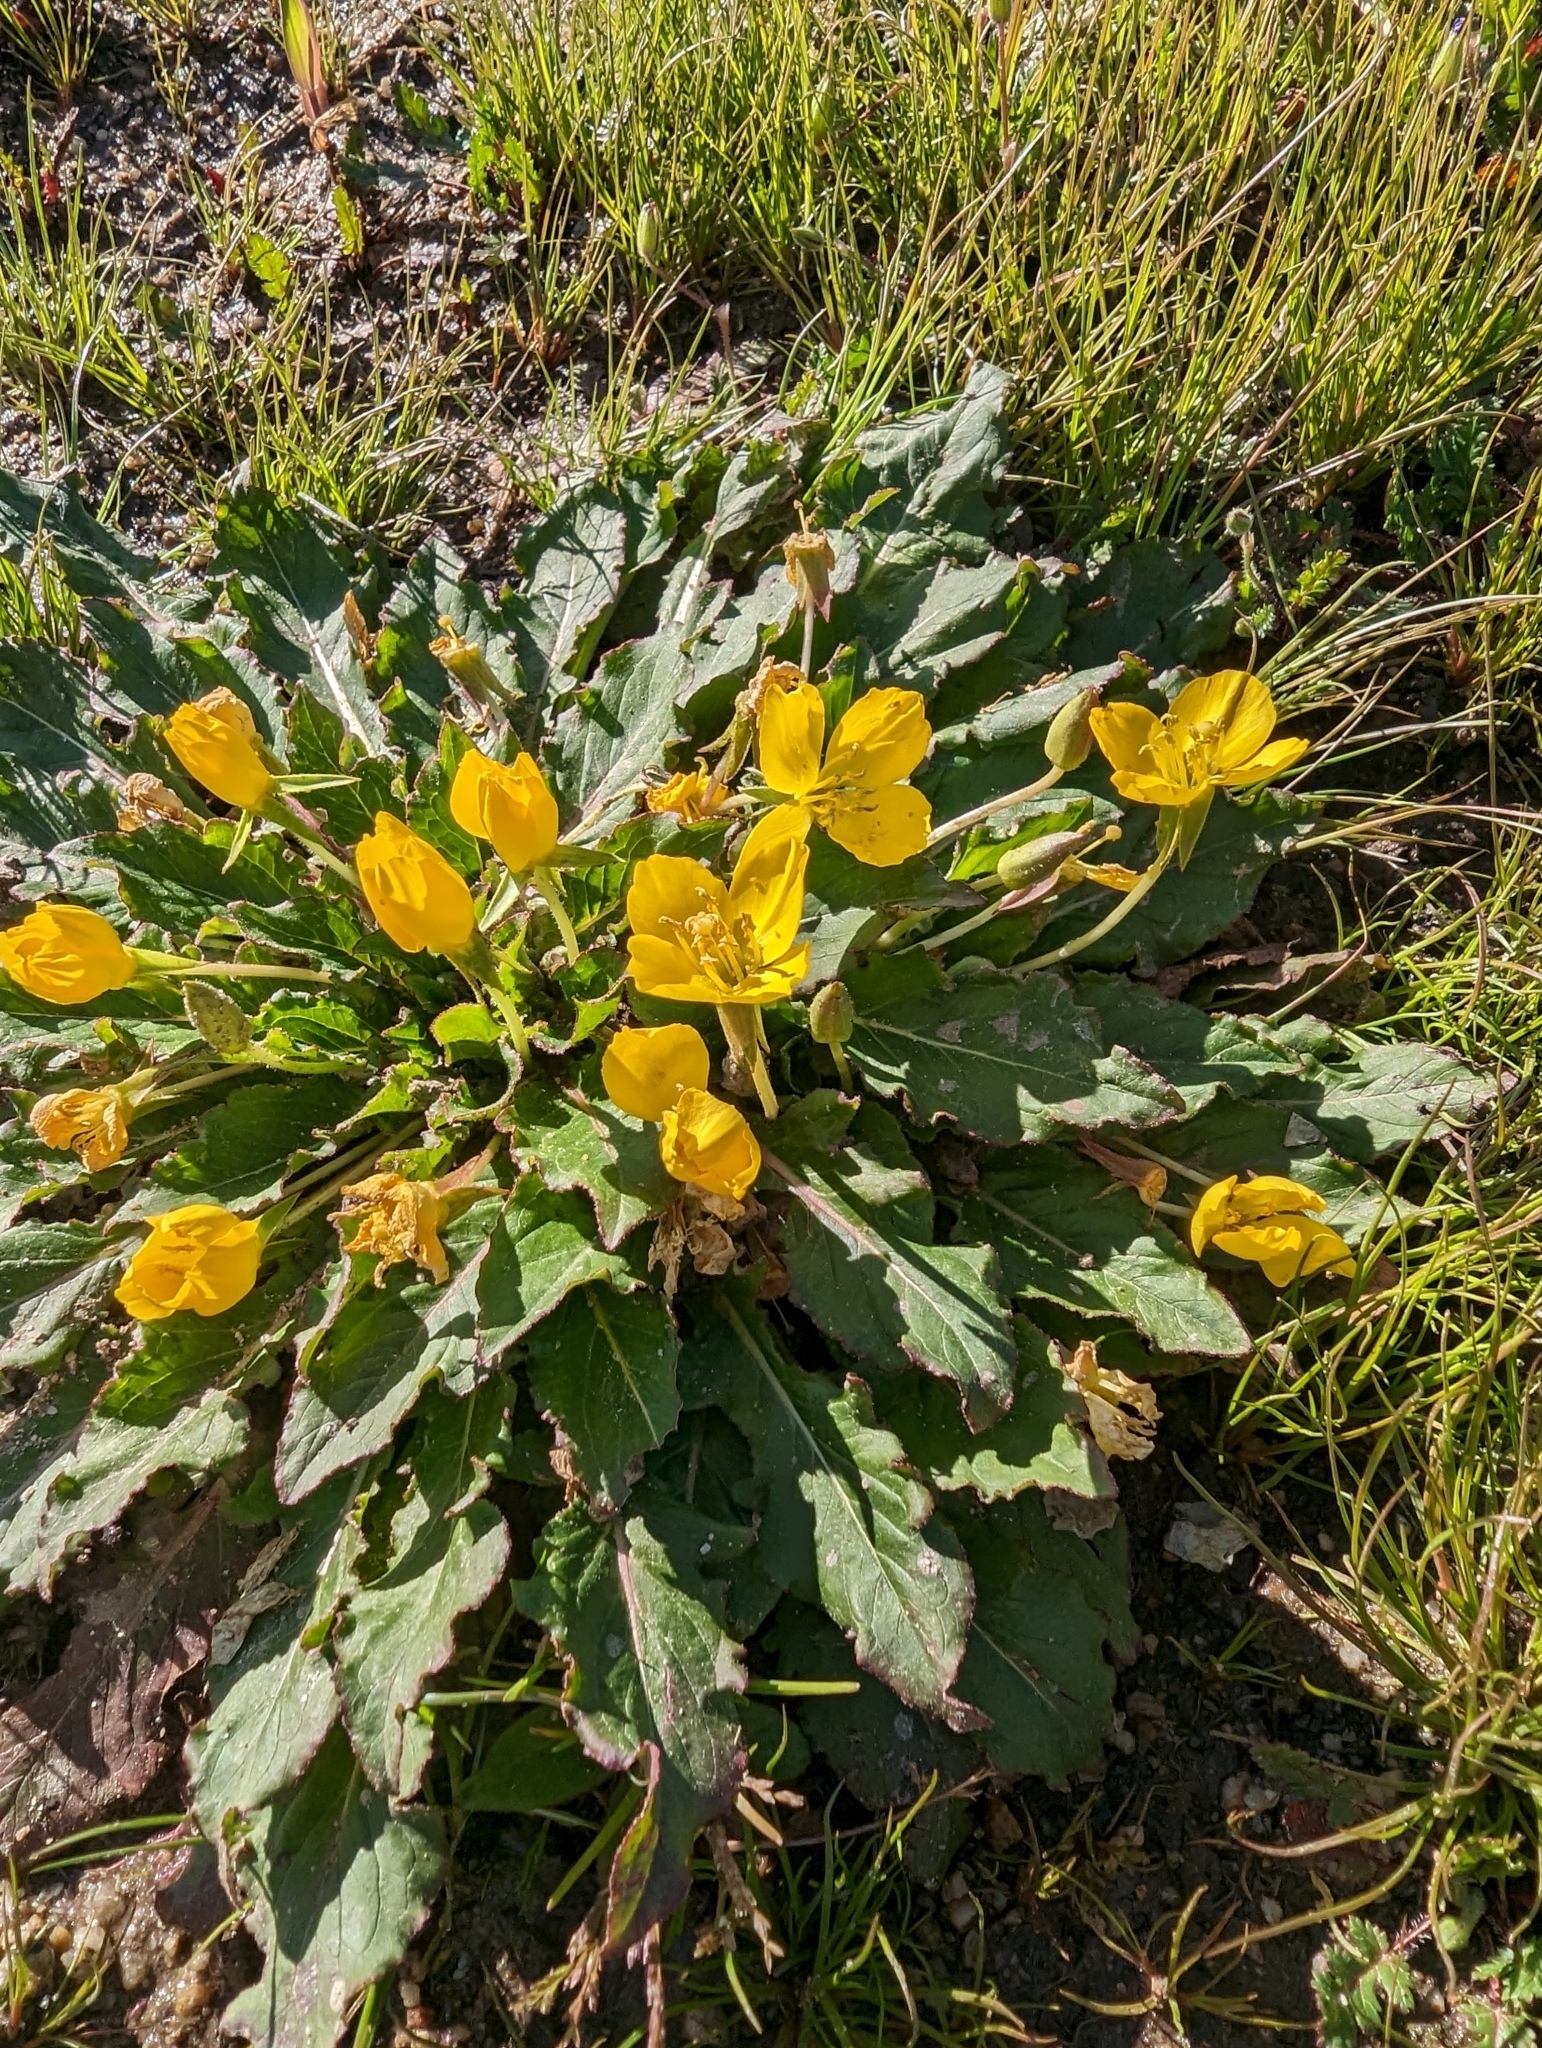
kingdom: Plantae
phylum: Tracheophyta
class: Magnoliopsida
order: Myrtales
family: Onagraceae
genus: Taraxia
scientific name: Taraxia ovata
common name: Goldeneggs
